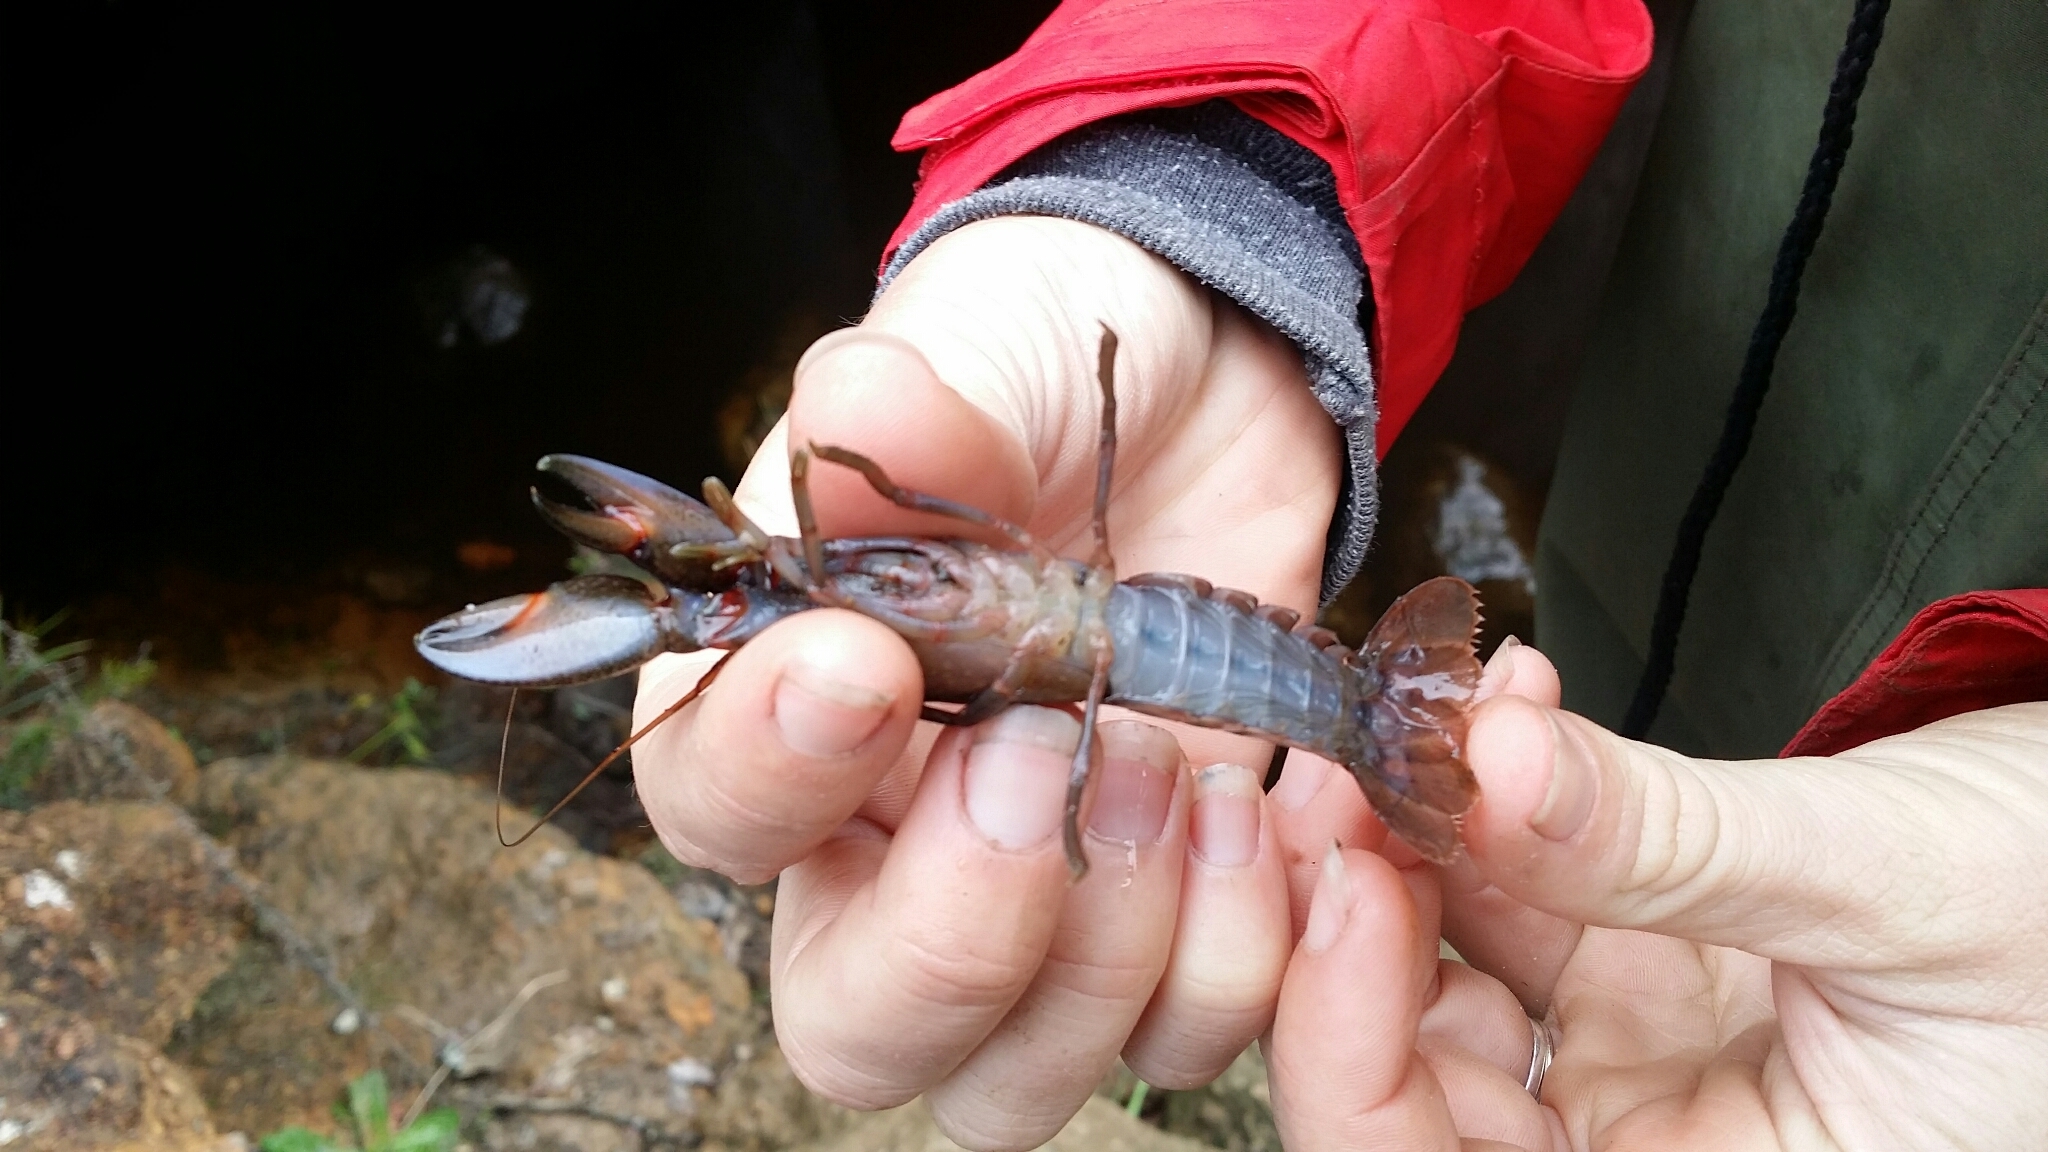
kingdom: Animalia
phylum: Arthropoda
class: Malacostraca
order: Decapoda
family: Parastacidae
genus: Cherax
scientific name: Cherax preissii
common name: Koonac
